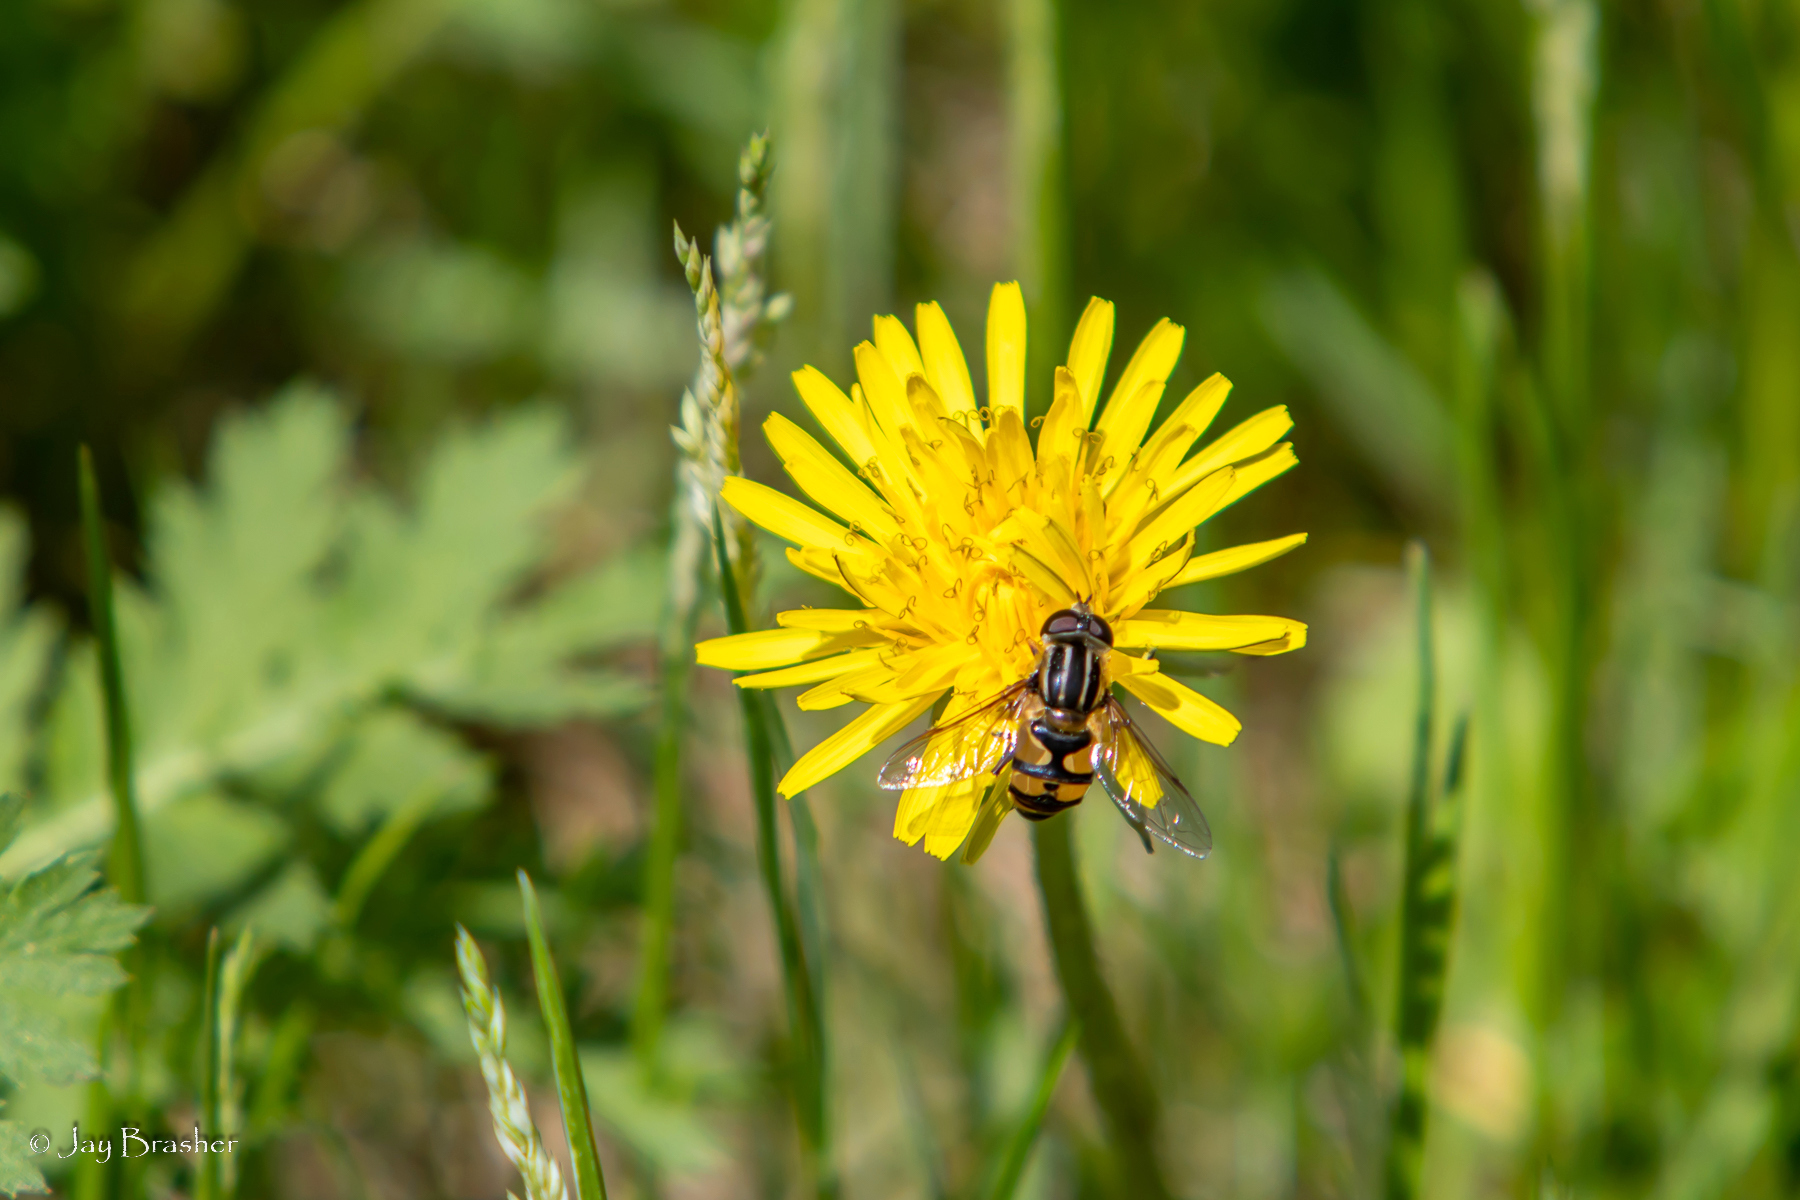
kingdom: Animalia
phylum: Arthropoda
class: Insecta
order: Diptera
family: Syrphidae
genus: Helophilus
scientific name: Helophilus fasciatus
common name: Narrow-headed marsh fly
